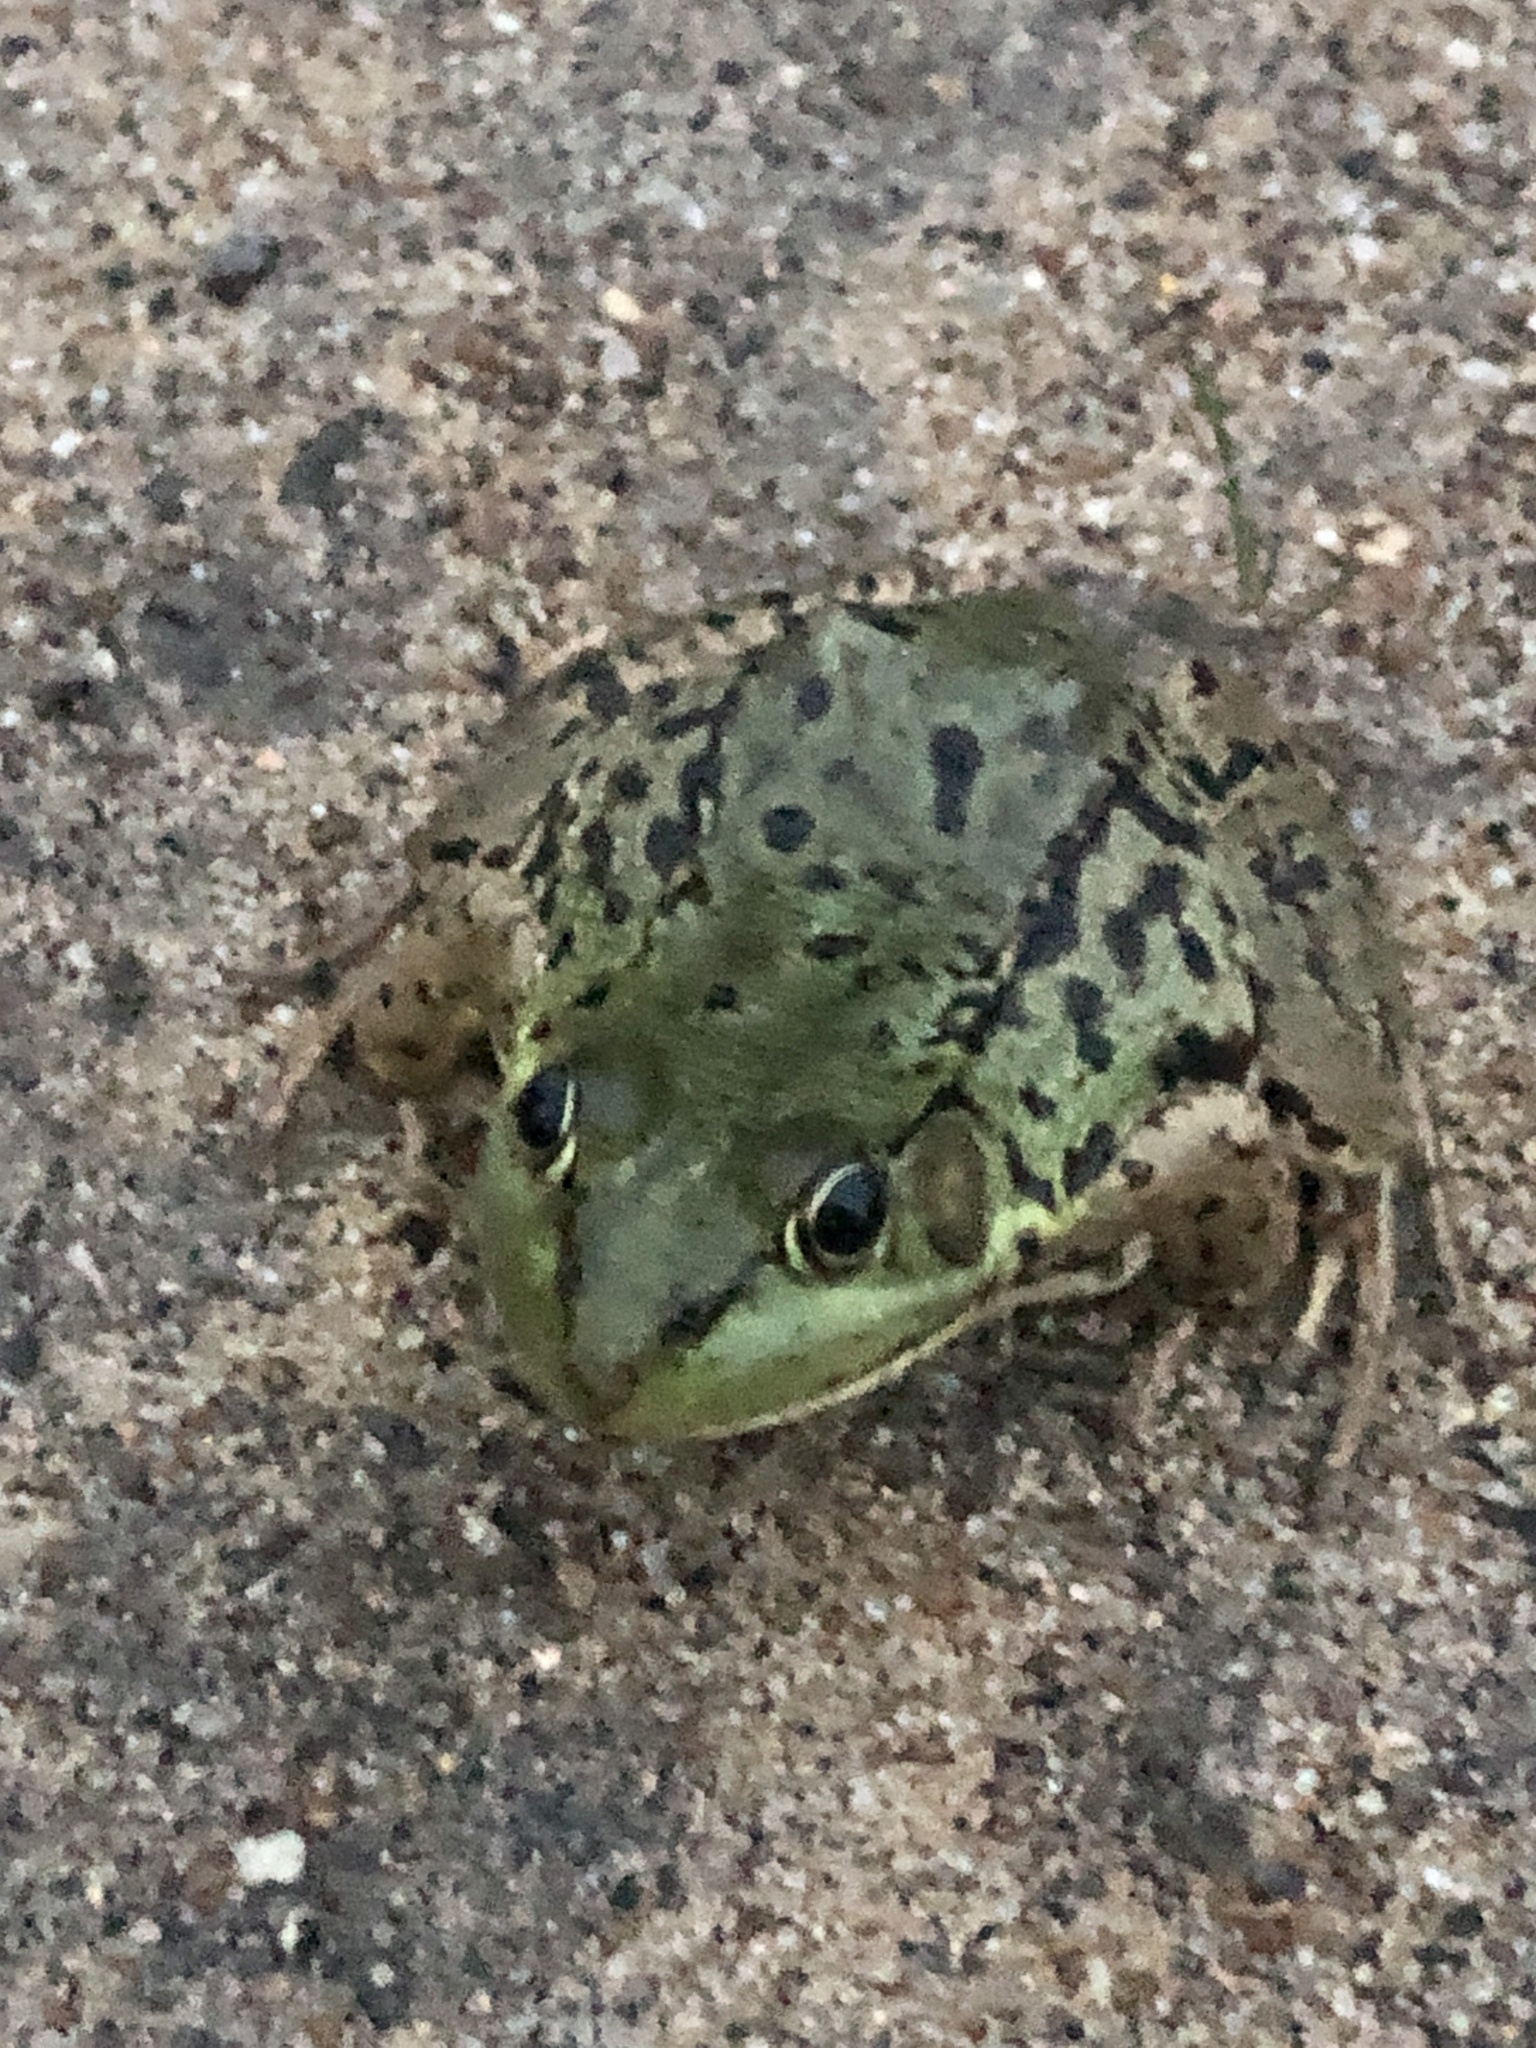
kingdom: Animalia
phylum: Chordata
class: Amphibia
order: Anura
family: Ranidae
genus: Lithobates
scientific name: Lithobates clamitans
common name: Green frog
